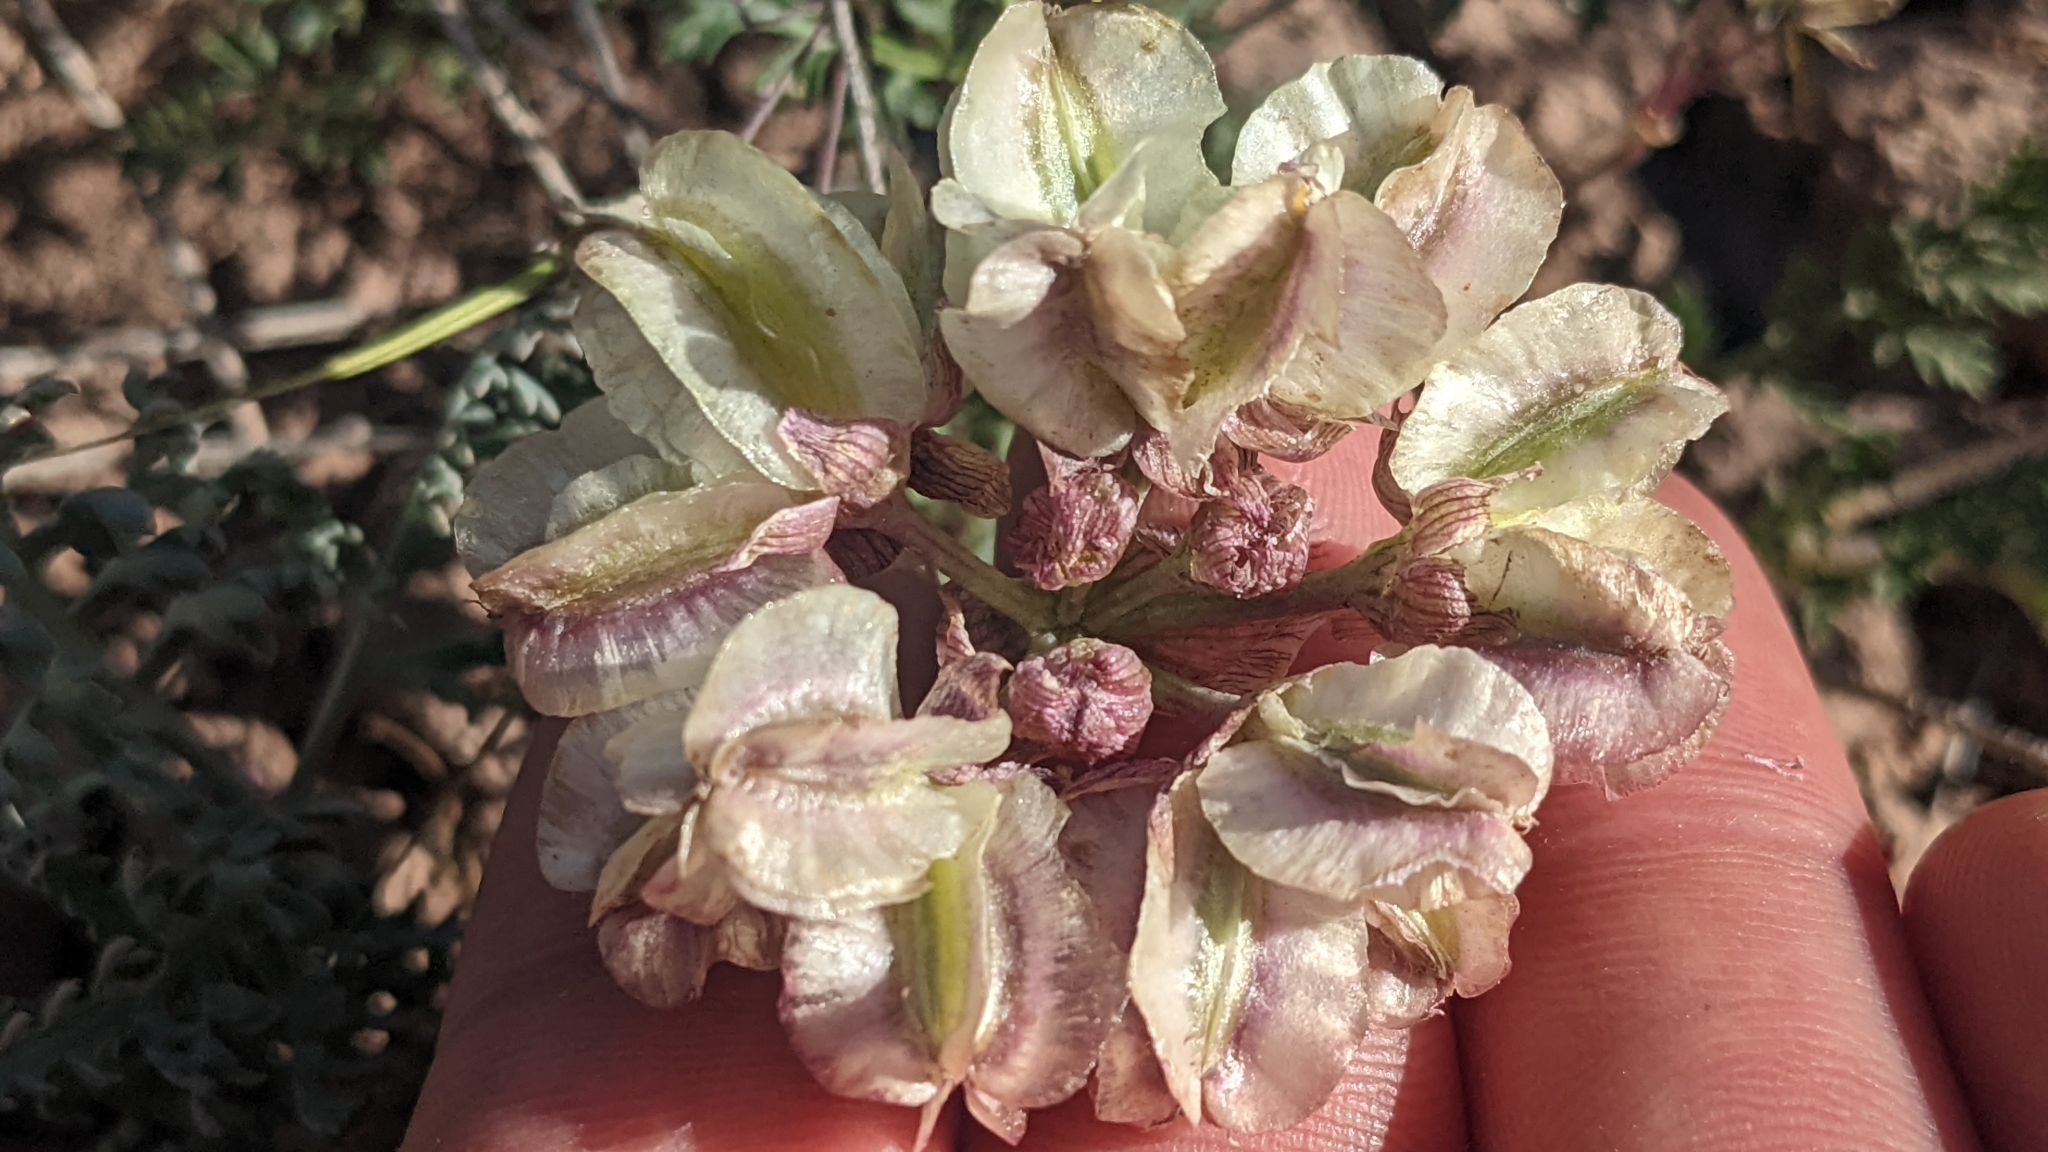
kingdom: Plantae
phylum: Tracheophyta
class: Magnoliopsida
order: Apiales
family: Apiaceae
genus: Vesper
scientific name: Vesper multinervatus
